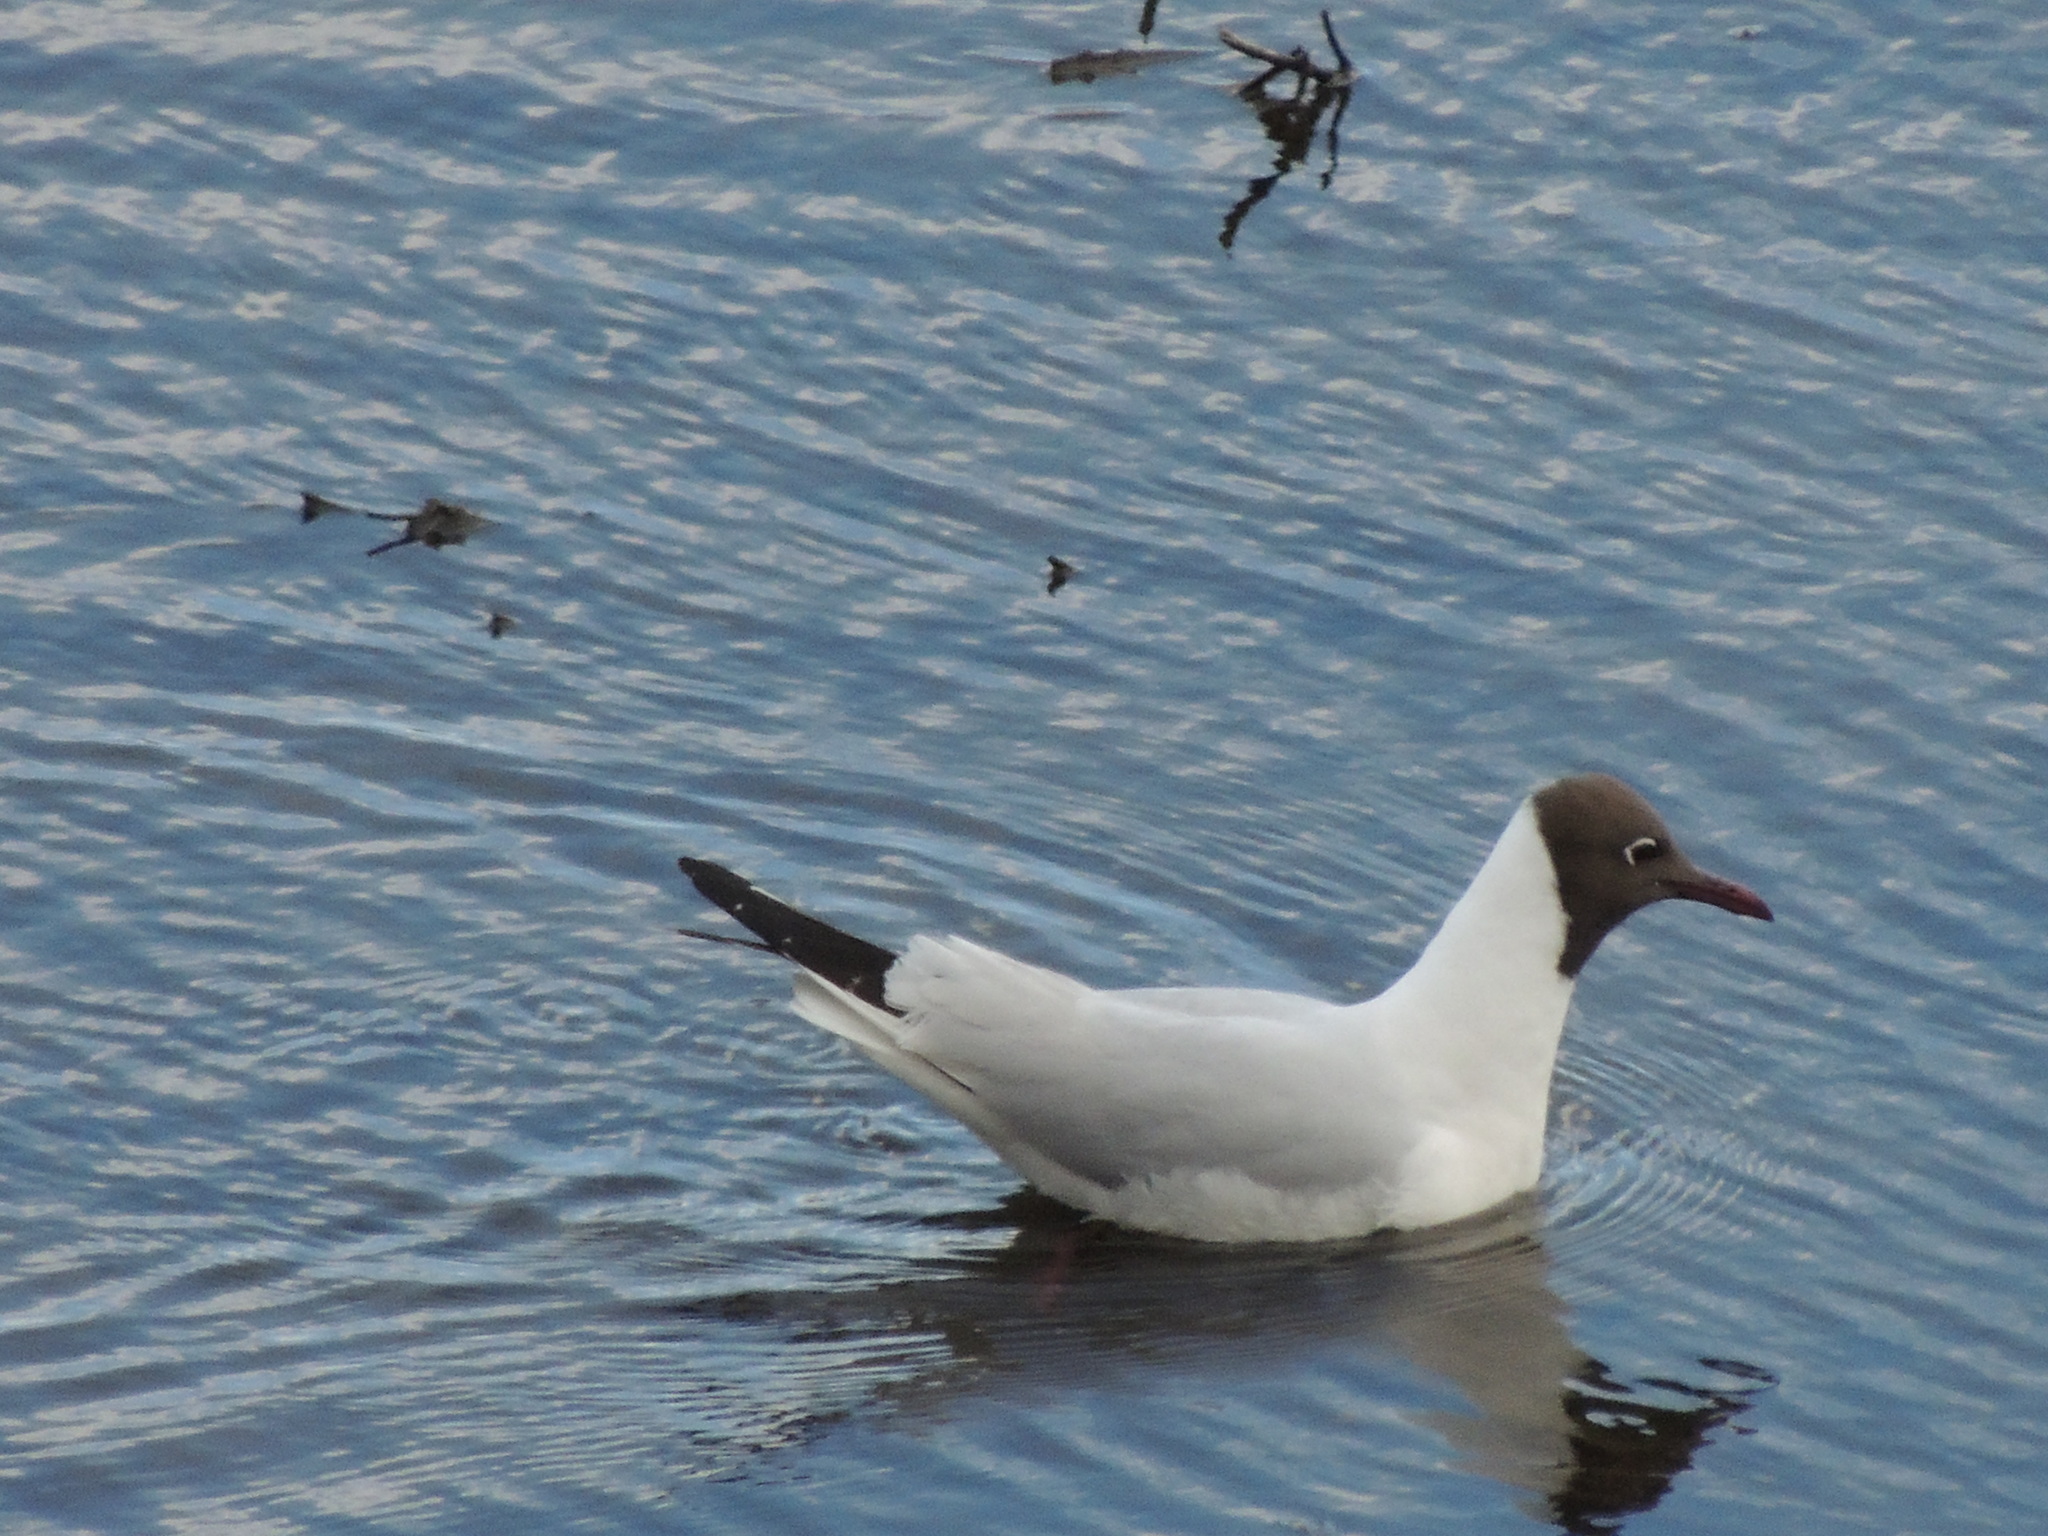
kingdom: Animalia
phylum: Chordata
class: Aves
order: Charadriiformes
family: Laridae
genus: Chroicocephalus
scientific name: Chroicocephalus ridibundus
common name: Black-headed gull
